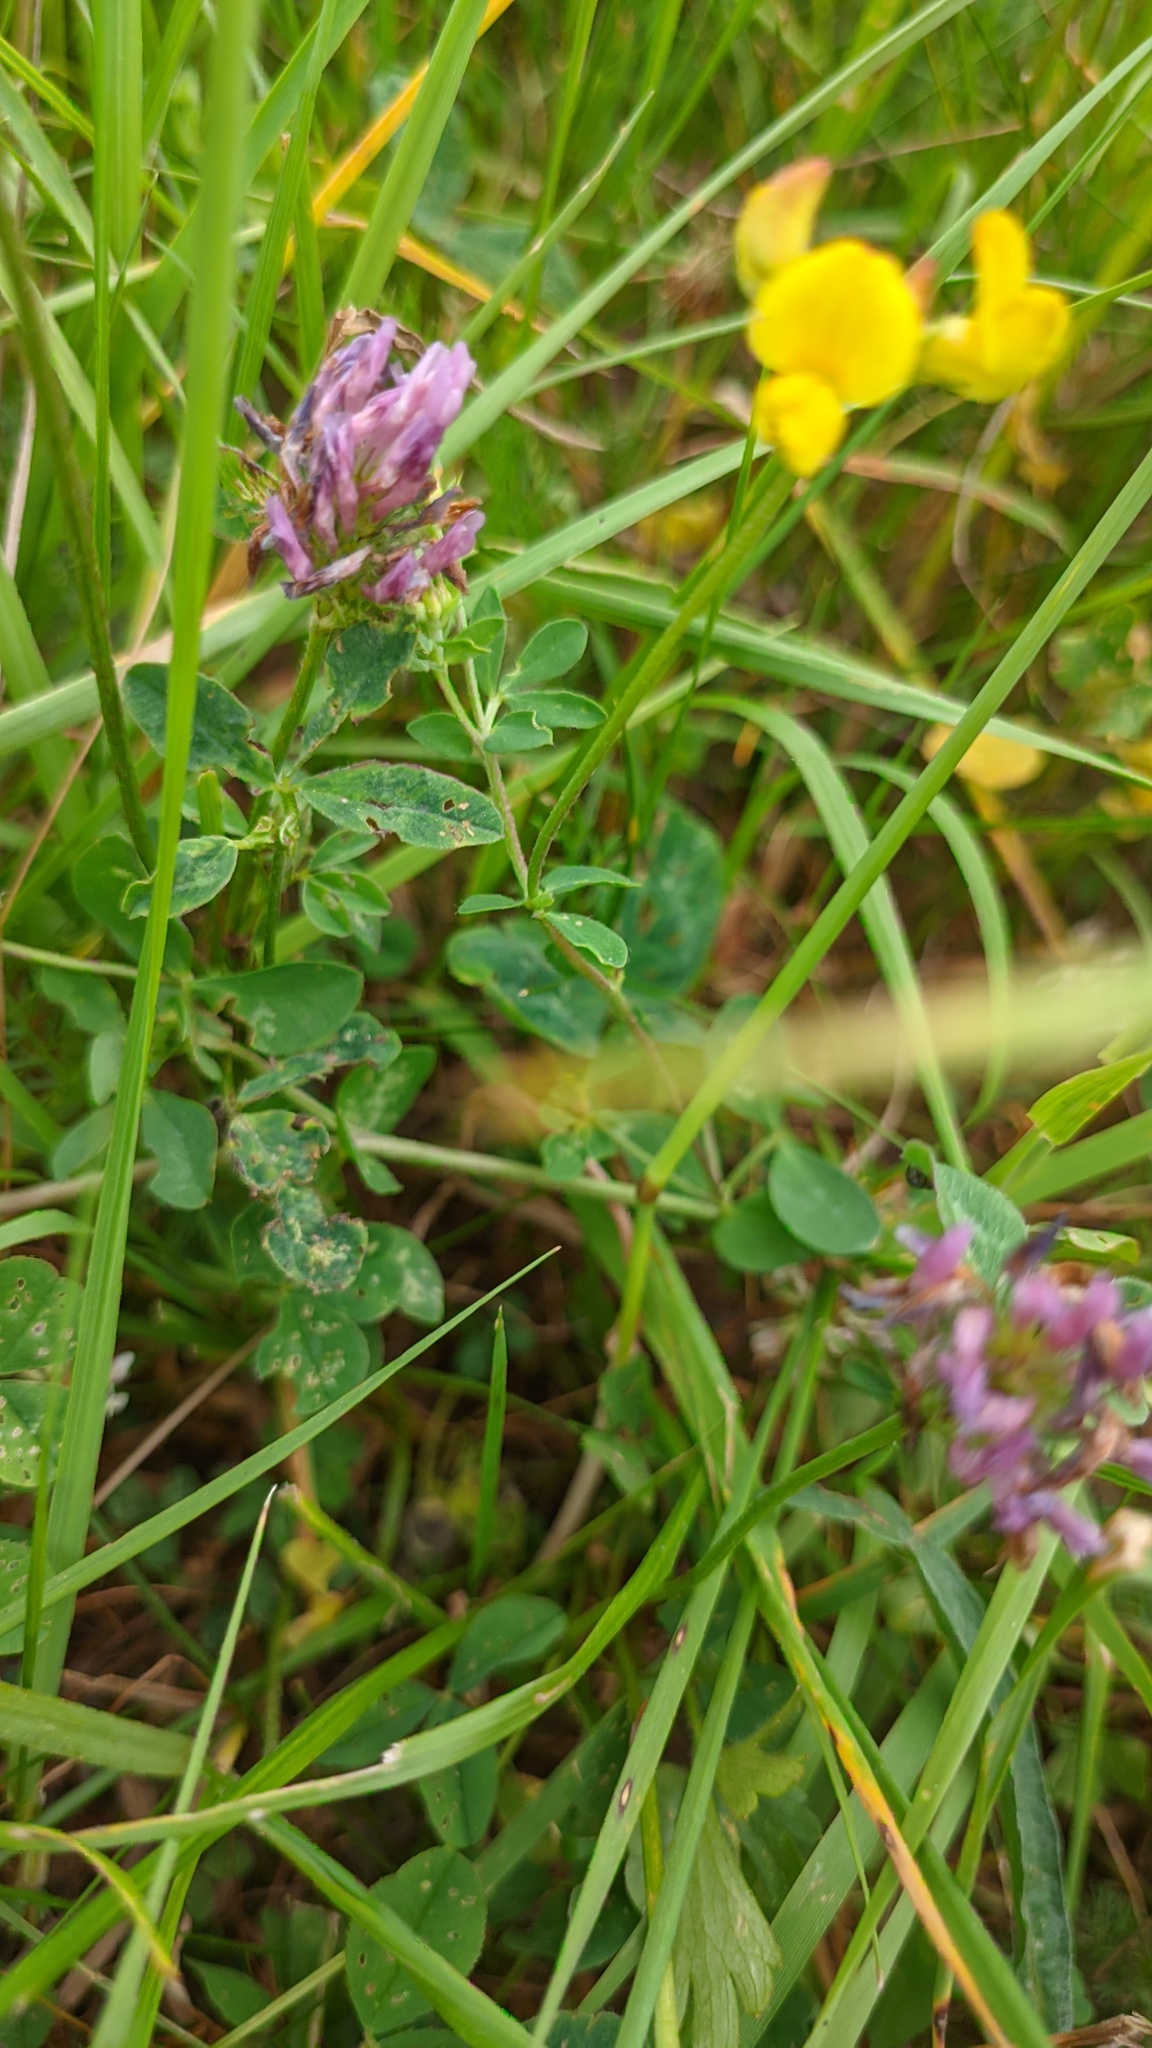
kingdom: Plantae
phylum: Tracheophyta
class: Magnoliopsida
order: Fabales
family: Fabaceae
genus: Lotus
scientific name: Lotus corniculatus
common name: Common bird's-foot-trefoil
